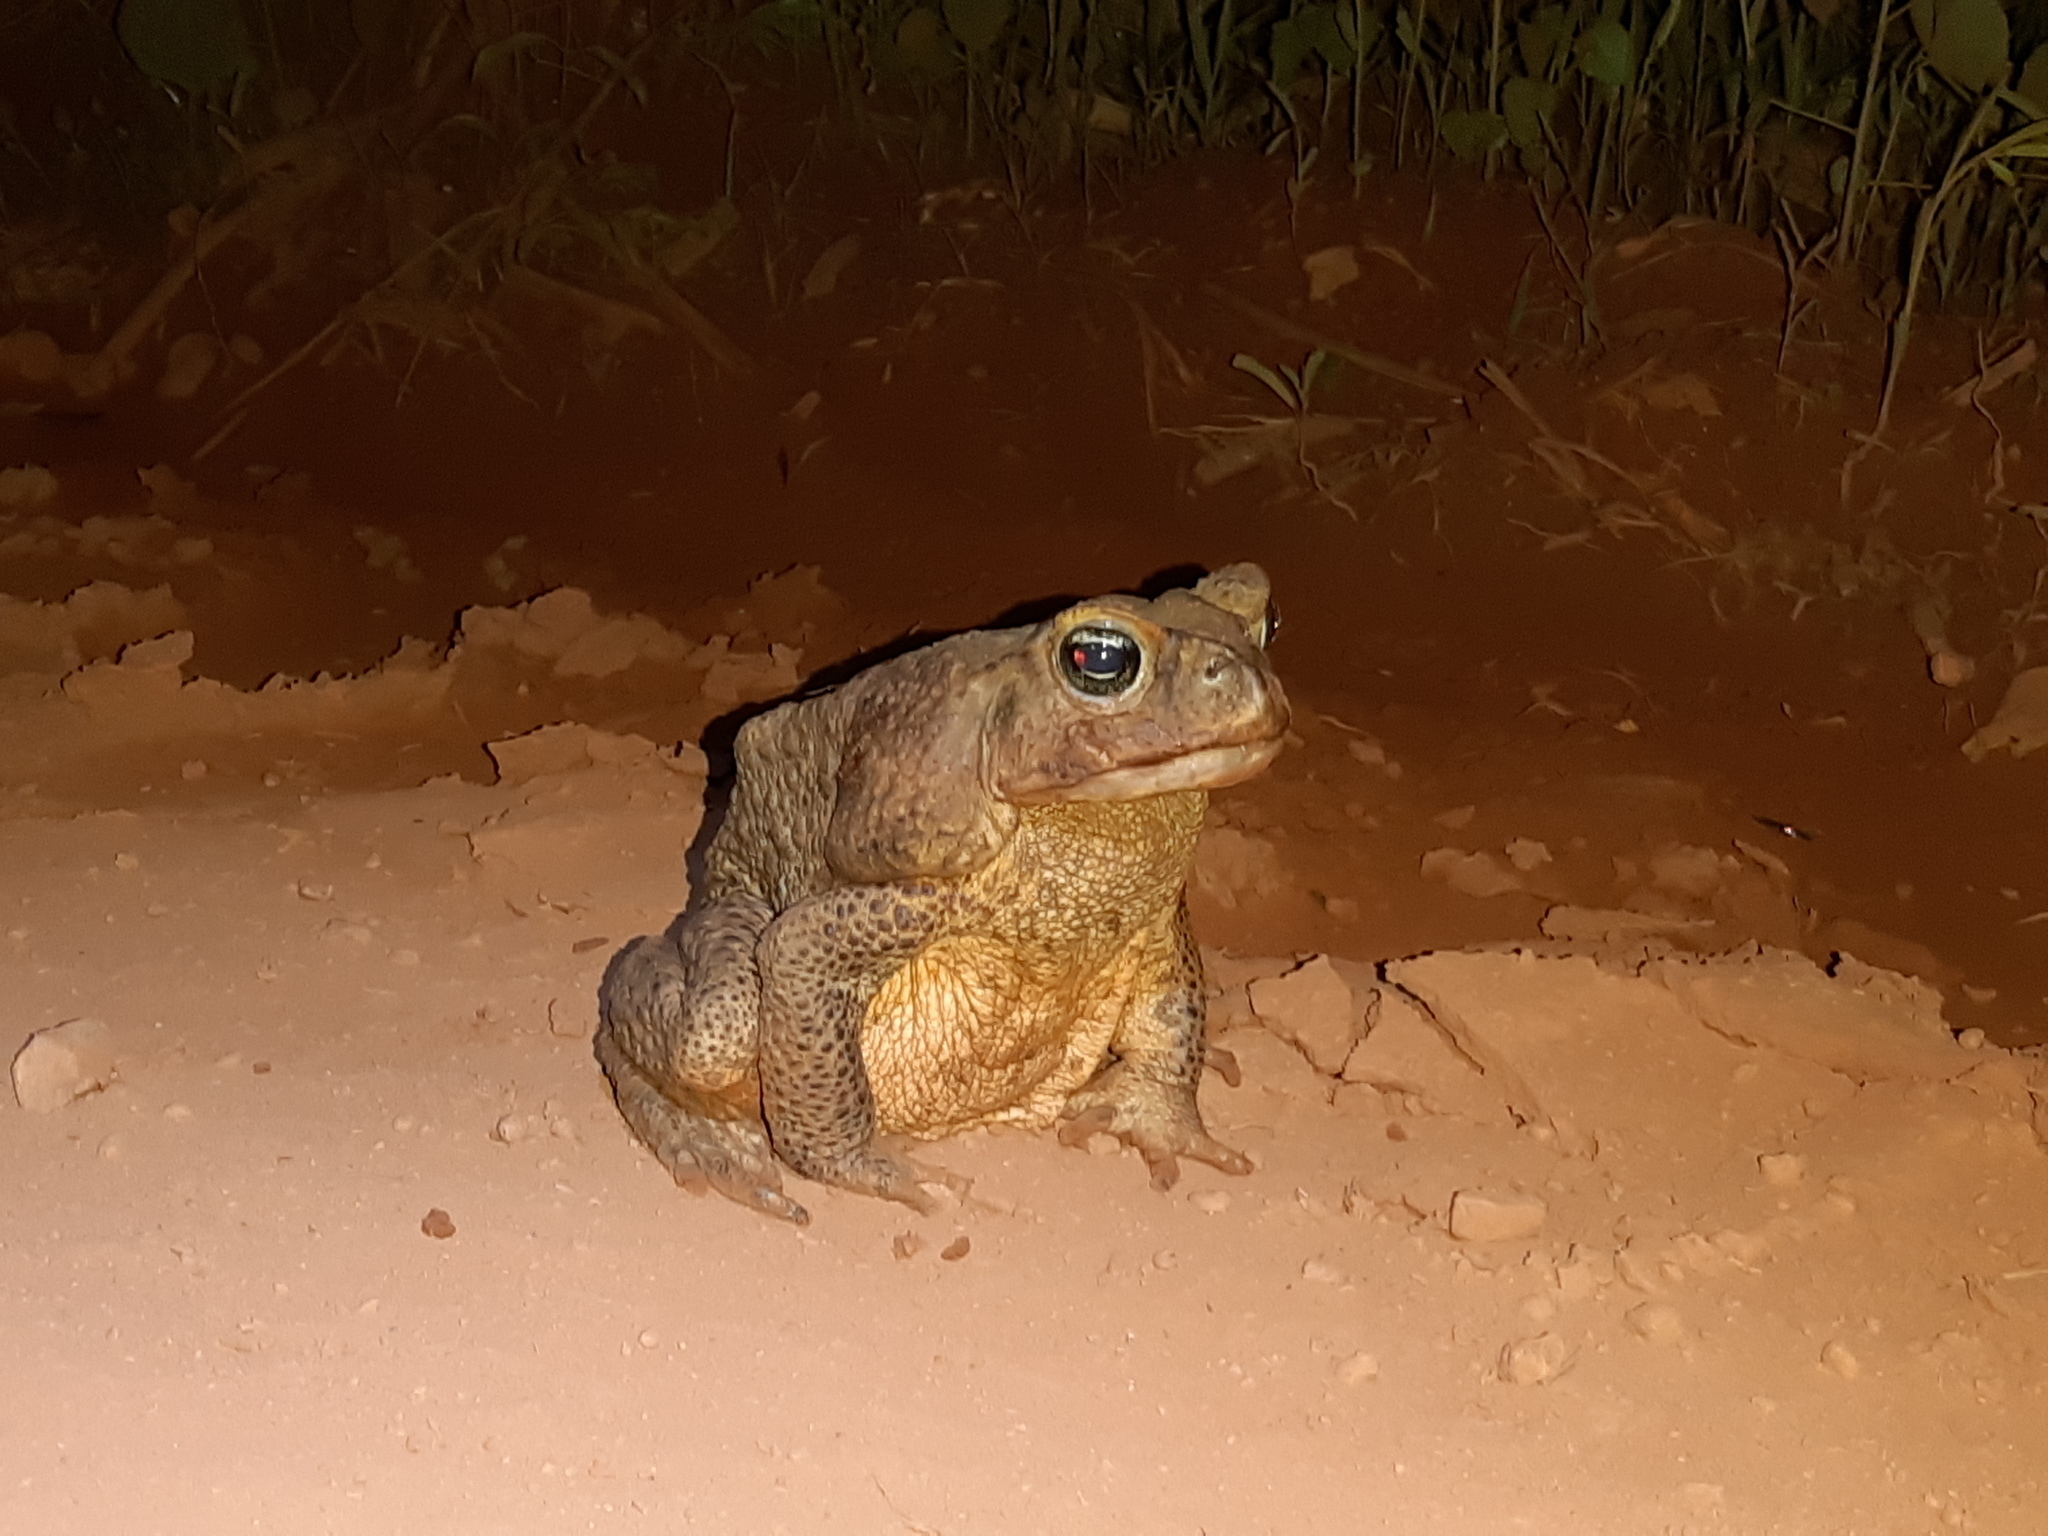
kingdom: Animalia
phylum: Chordata
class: Amphibia
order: Anura
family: Bufonidae
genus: Rhinella
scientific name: Rhinella diptycha
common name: Cope's toad
